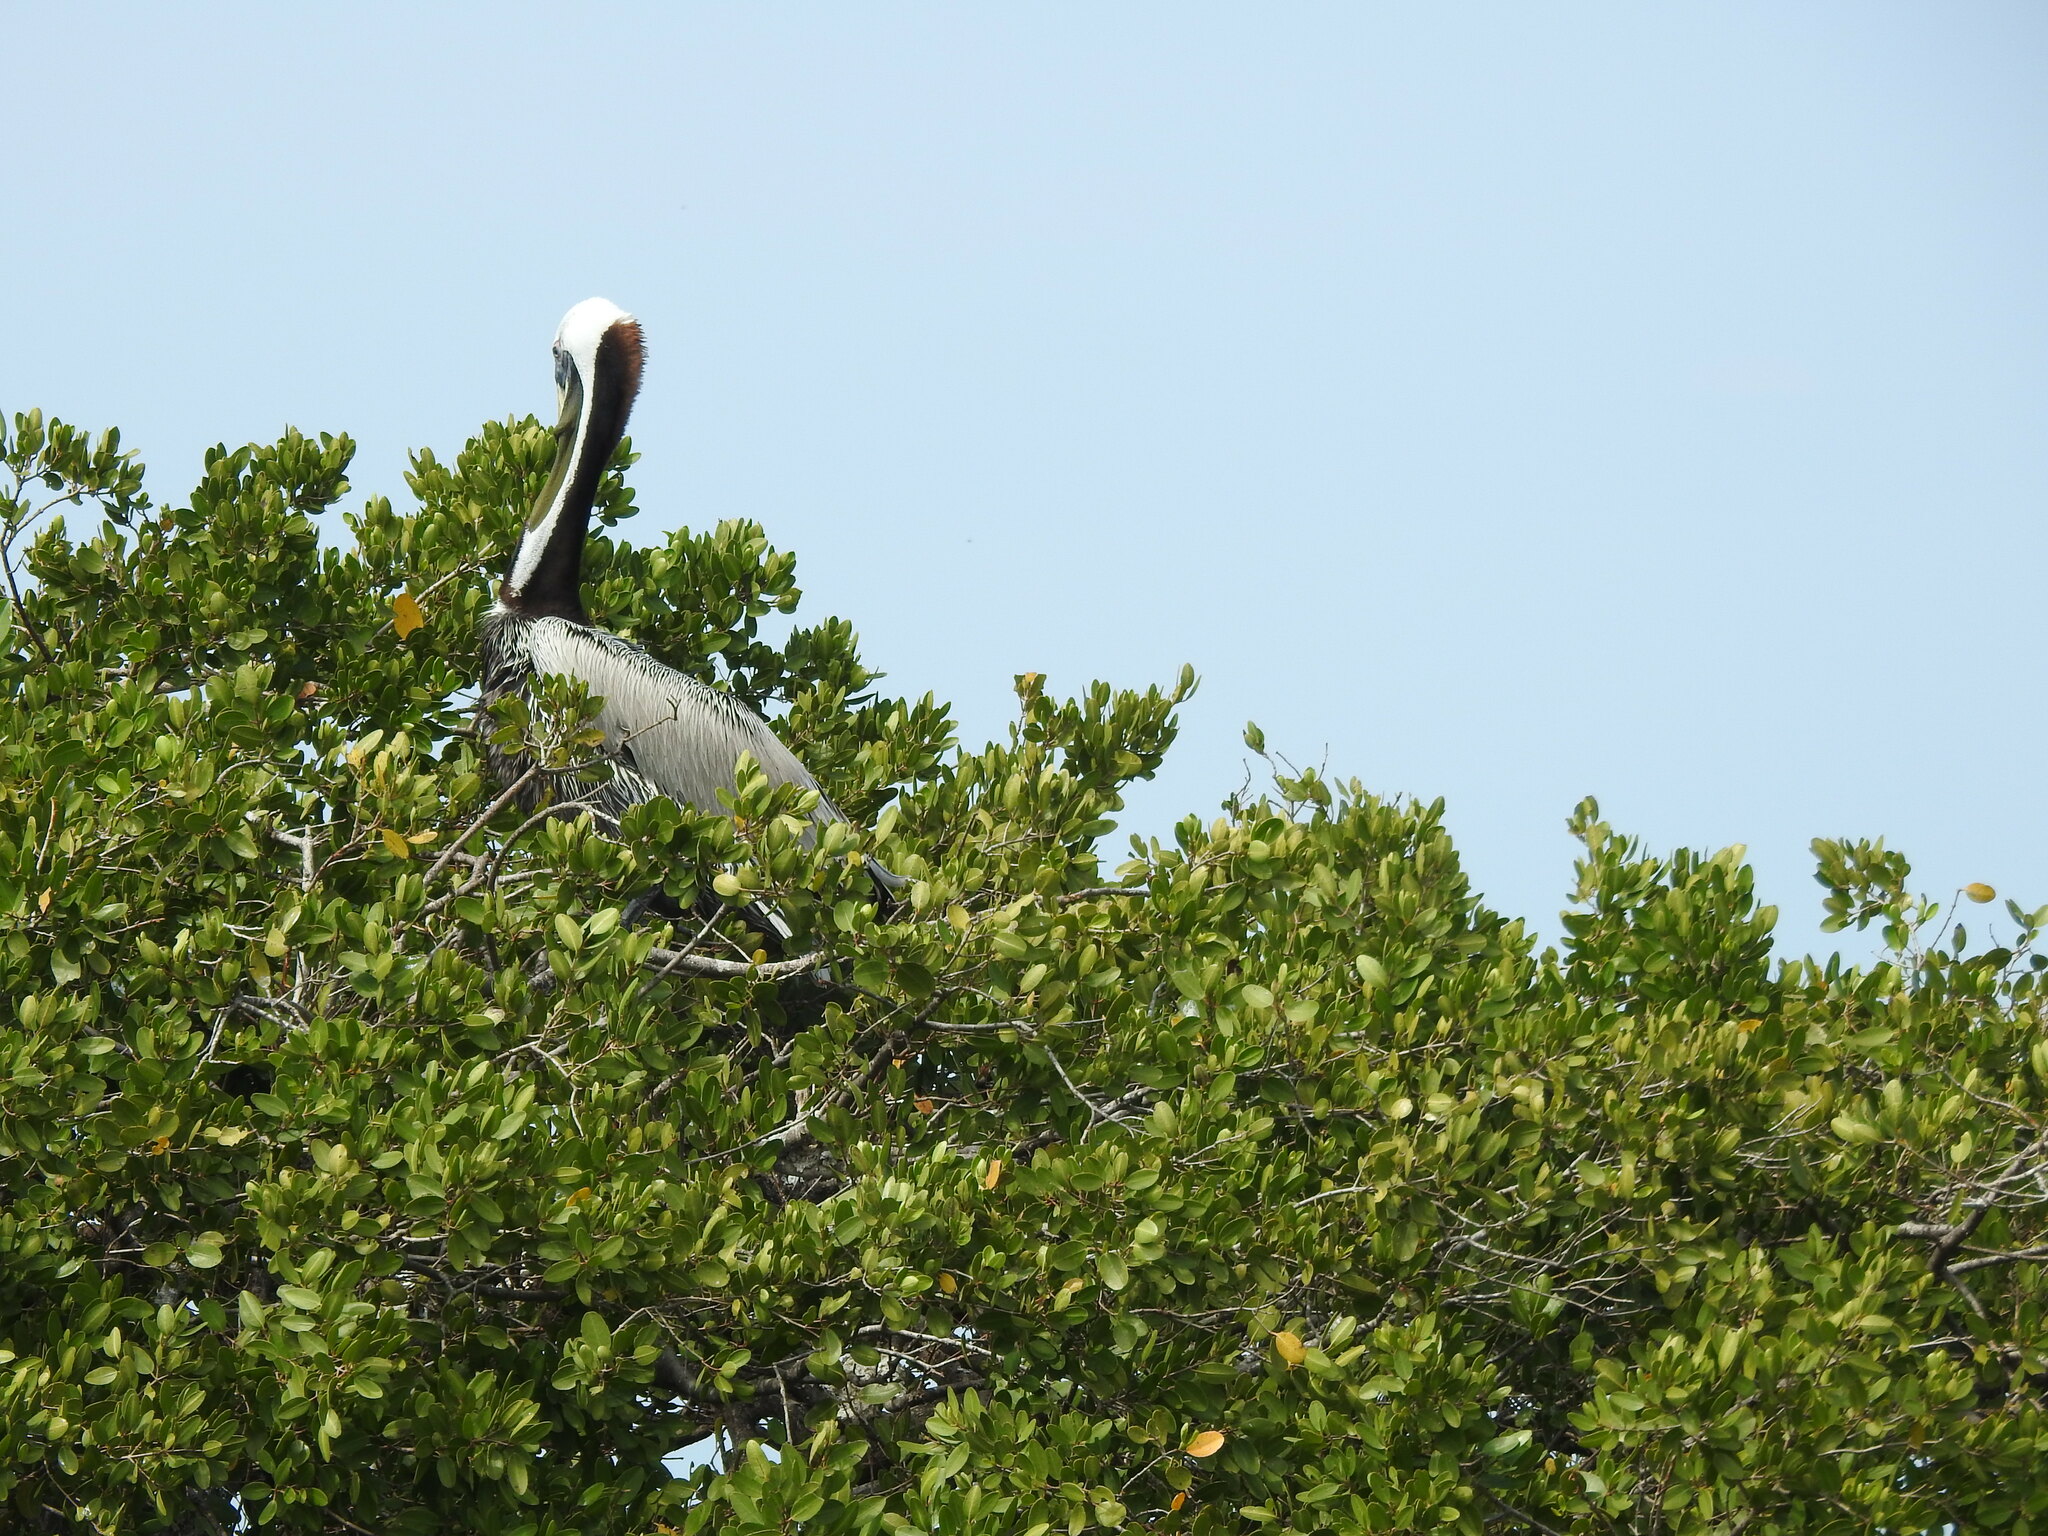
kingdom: Animalia
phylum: Chordata
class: Aves
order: Pelecaniformes
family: Pelecanidae
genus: Pelecanus
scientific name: Pelecanus occidentalis
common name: Brown pelican
